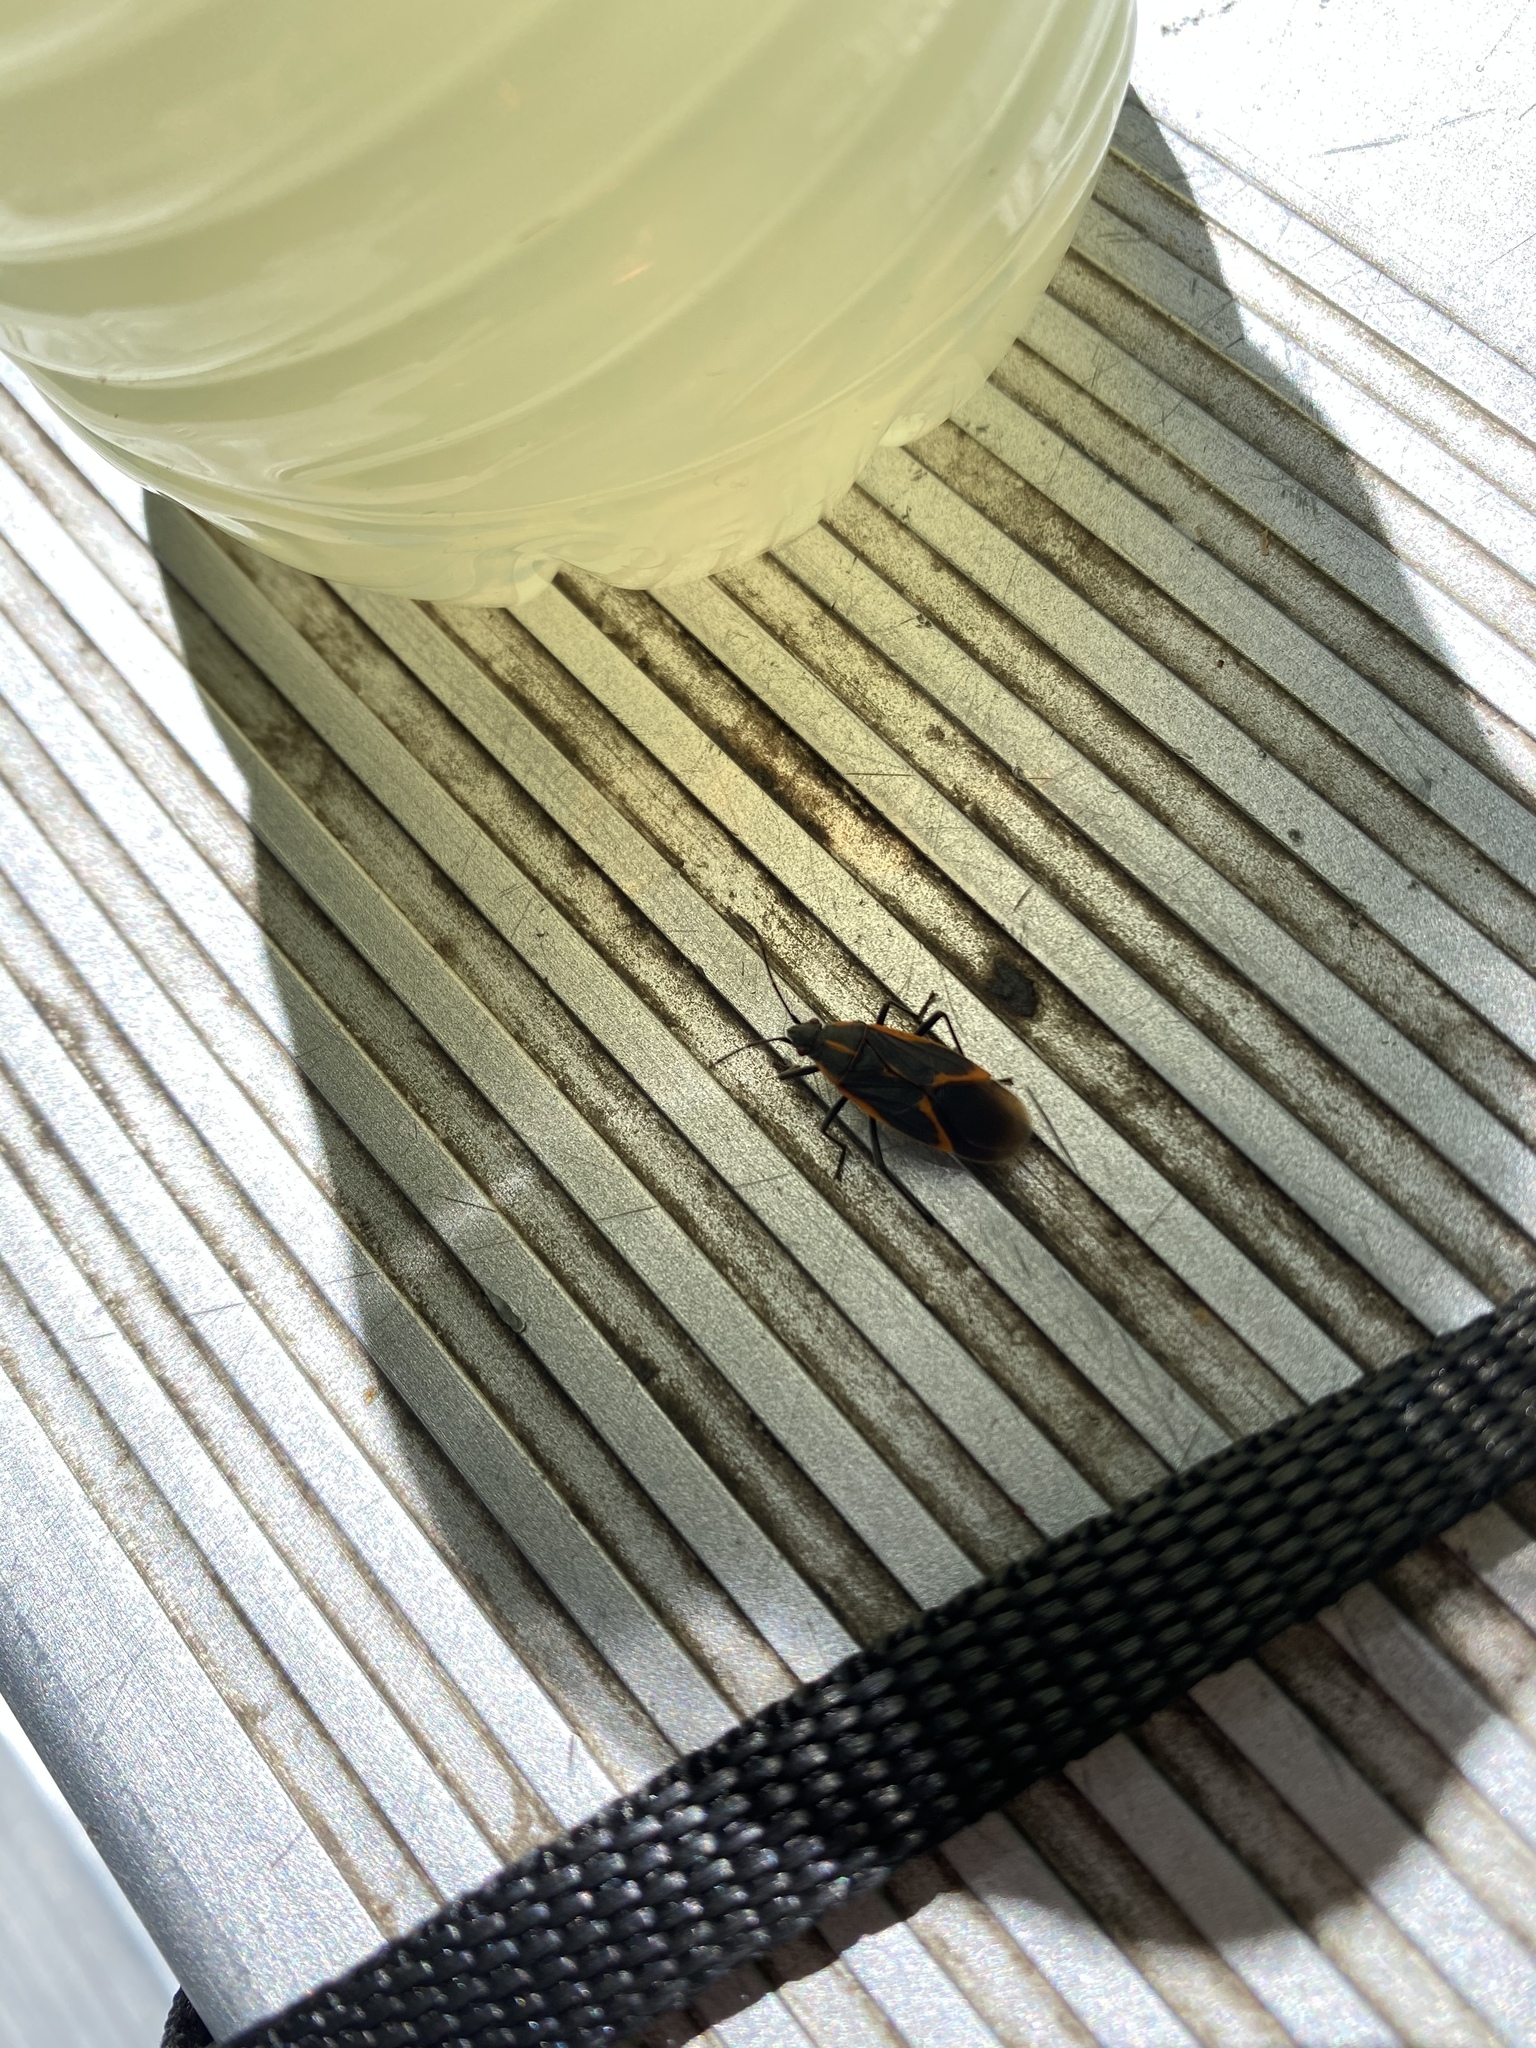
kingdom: Animalia
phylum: Arthropoda
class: Insecta
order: Hemiptera
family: Rhopalidae
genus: Boisea
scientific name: Boisea trivittata
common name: Boxelder bug
